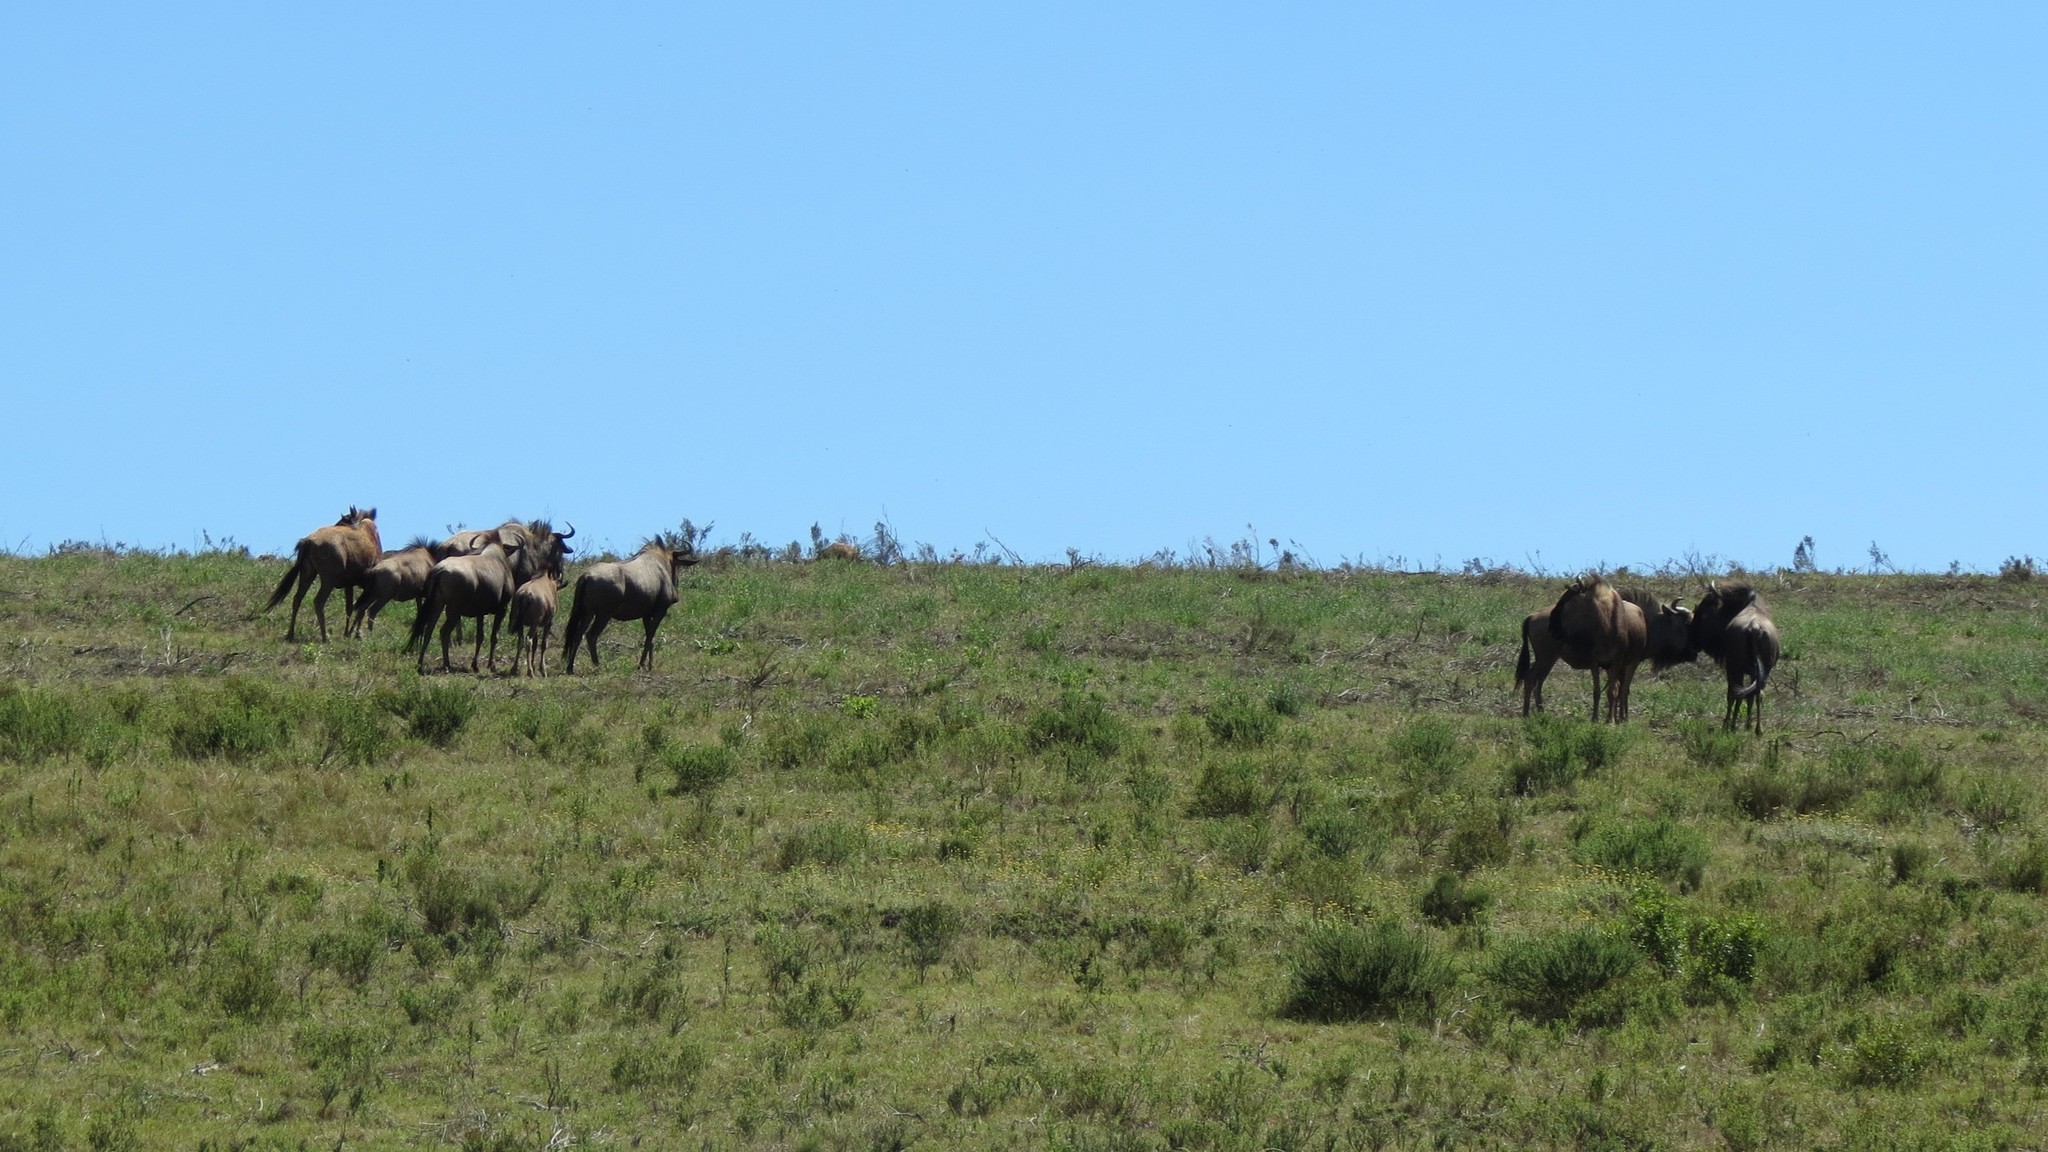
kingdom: Animalia
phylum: Chordata
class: Mammalia
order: Artiodactyla
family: Bovidae
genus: Connochaetes
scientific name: Connochaetes taurinus
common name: Blue wildebeest
